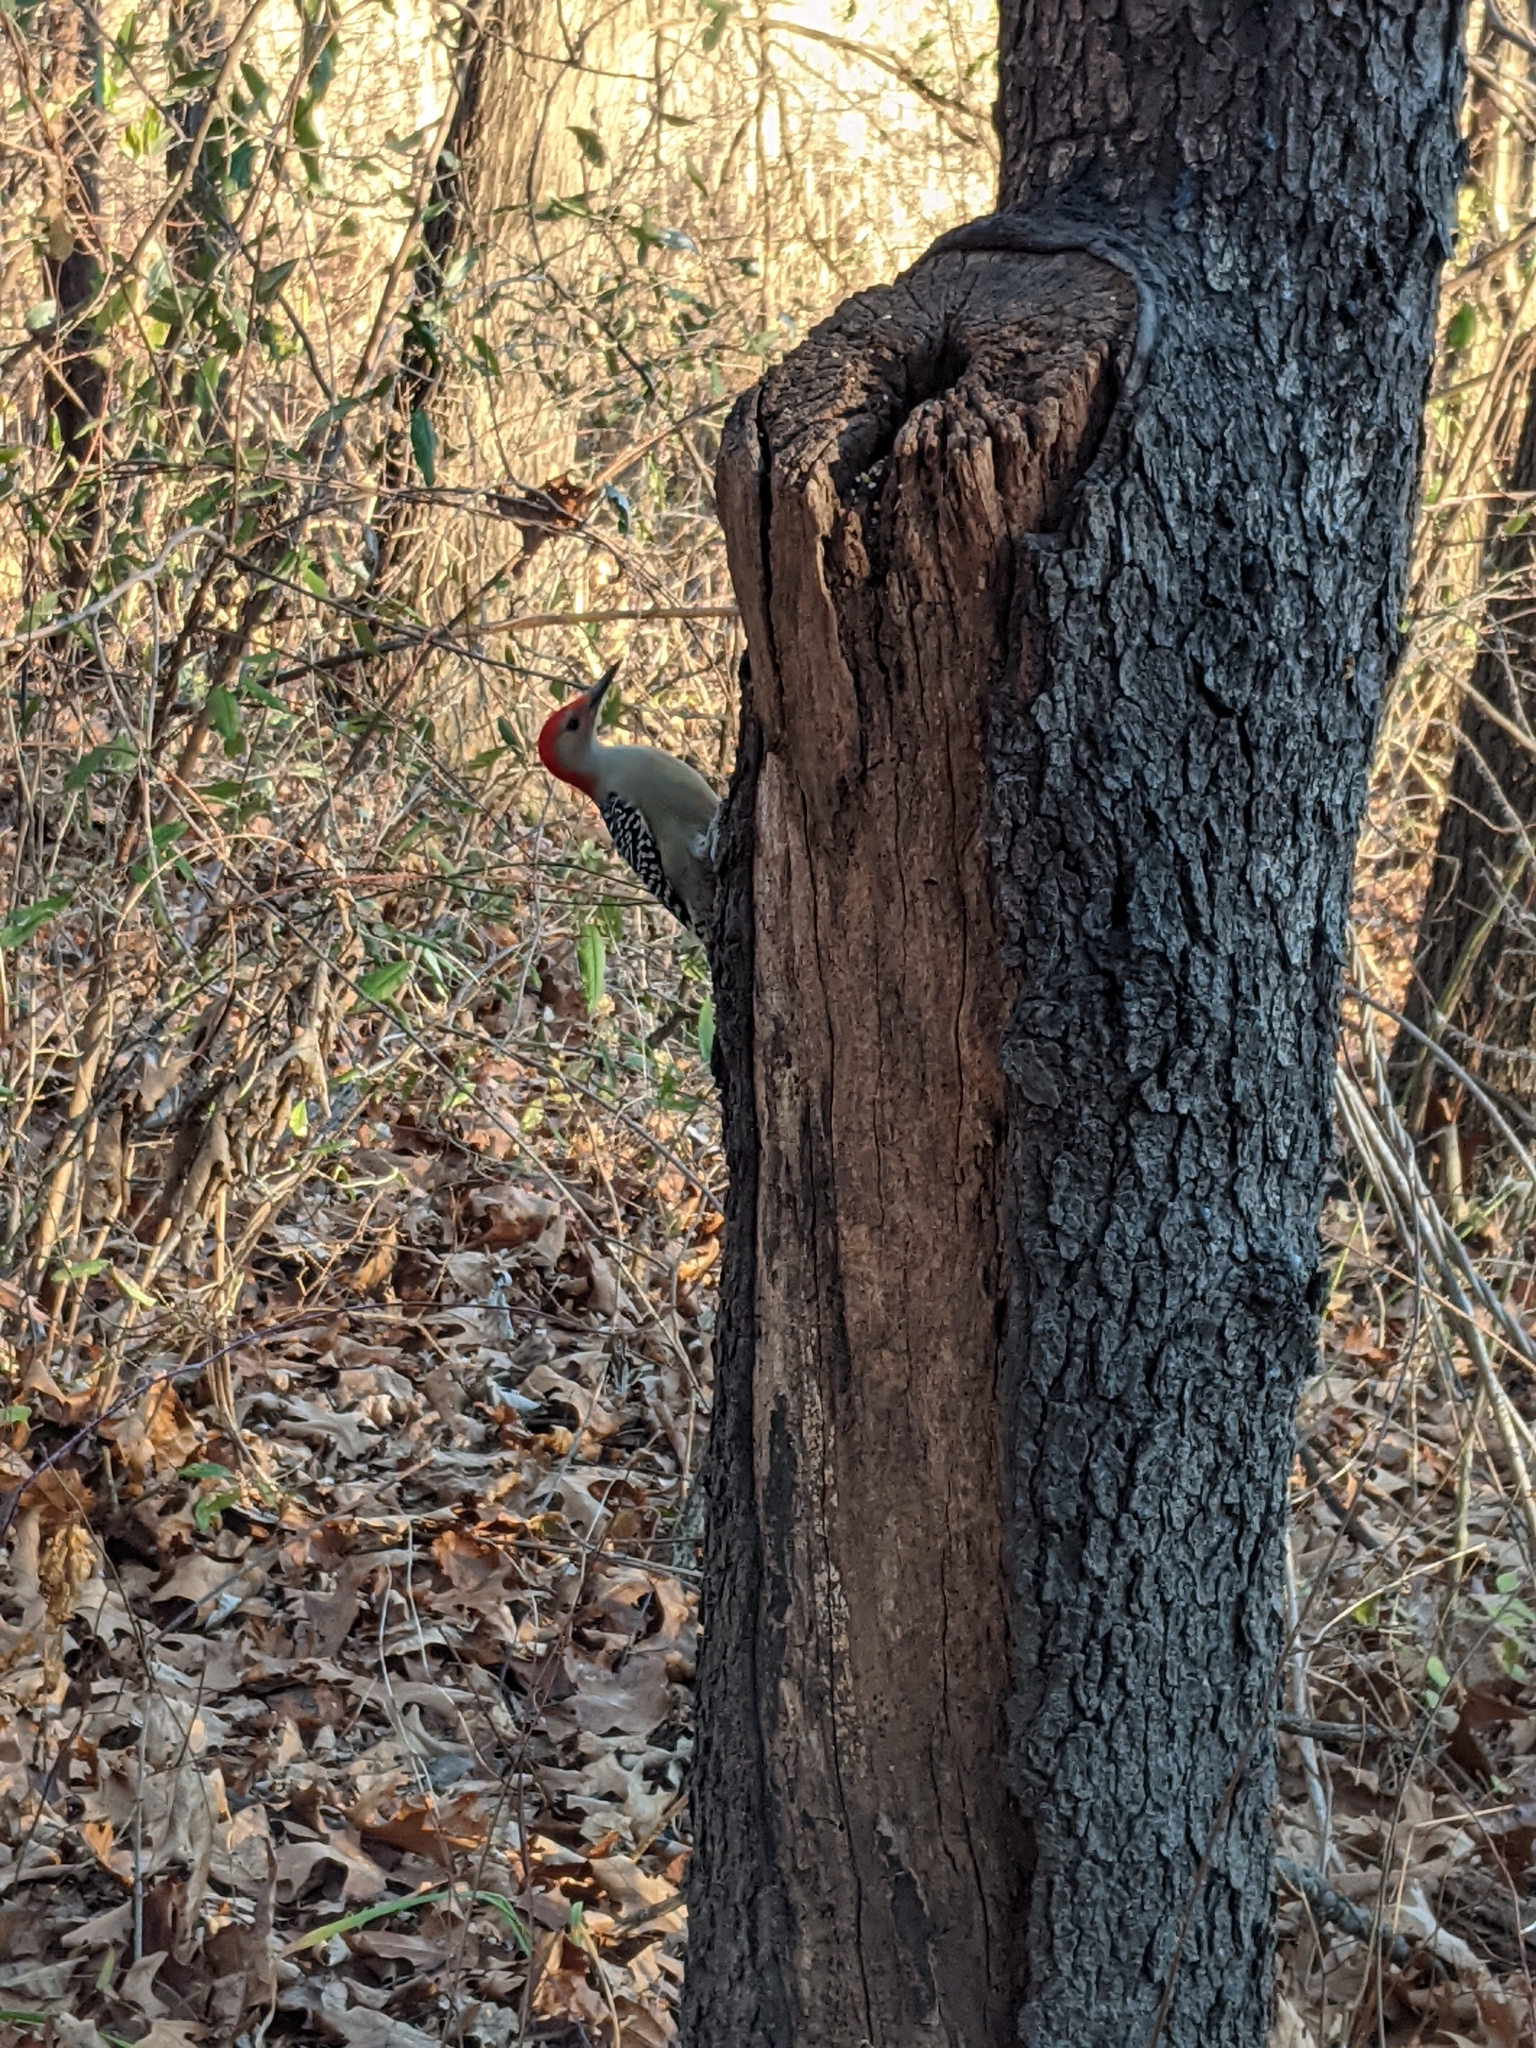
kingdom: Animalia
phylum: Chordata
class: Aves
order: Piciformes
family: Picidae
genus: Melanerpes
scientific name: Melanerpes carolinus
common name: Red-bellied woodpecker
